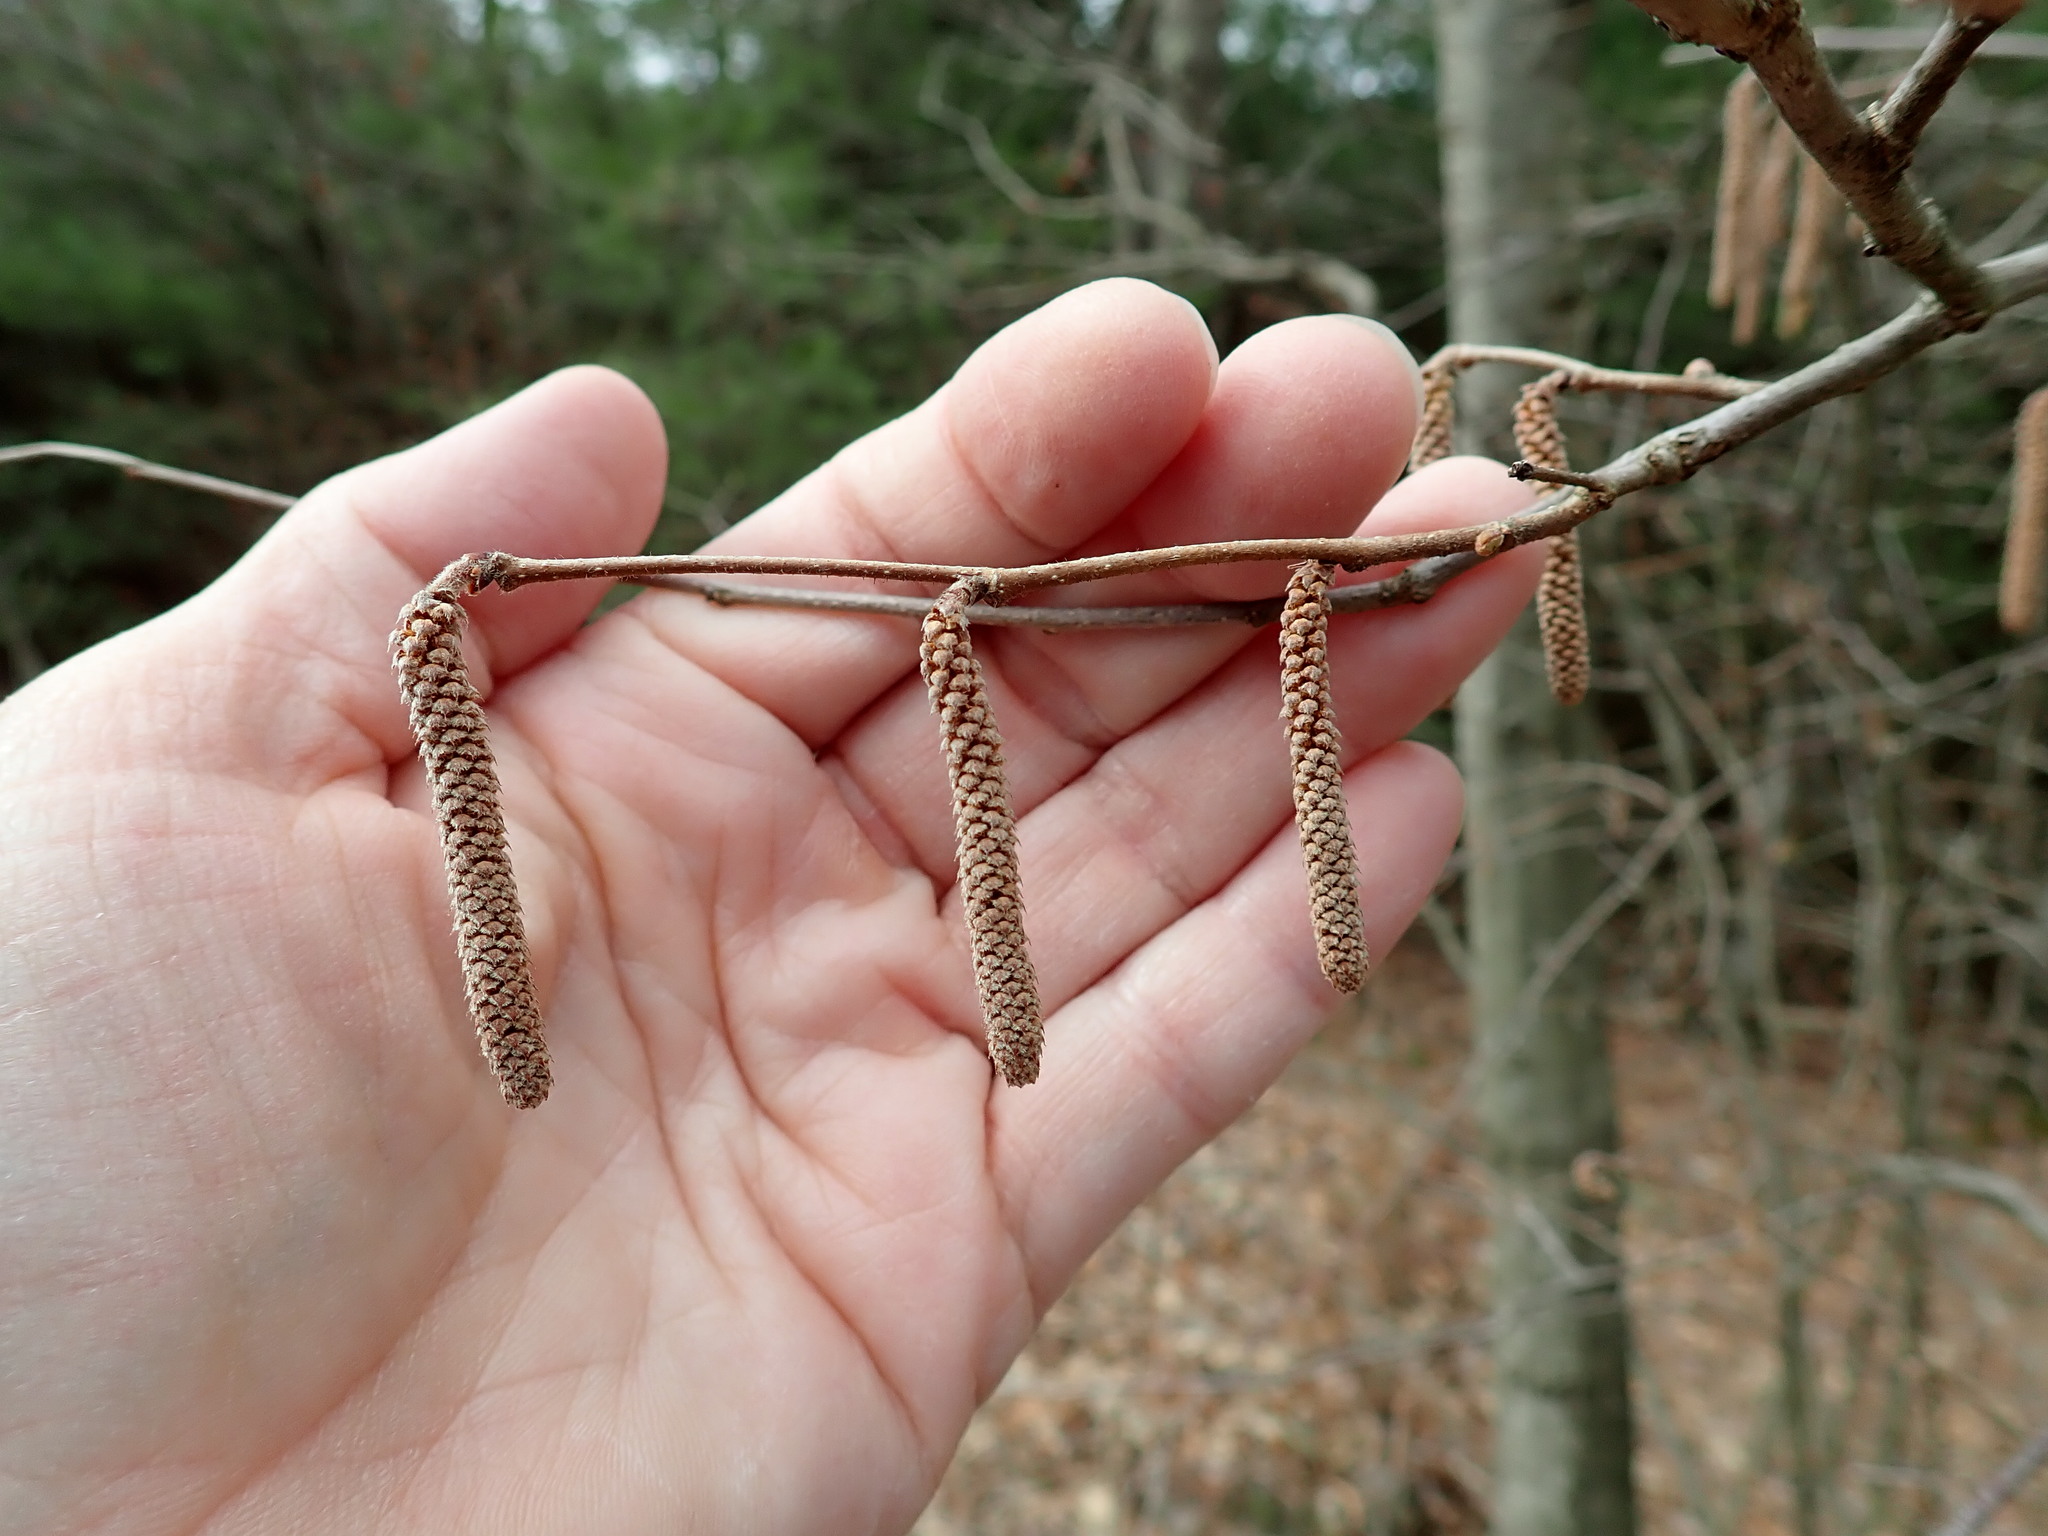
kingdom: Plantae
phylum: Tracheophyta
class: Magnoliopsida
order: Fagales
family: Betulaceae
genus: Corylus
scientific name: Corylus americana
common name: American hazel
